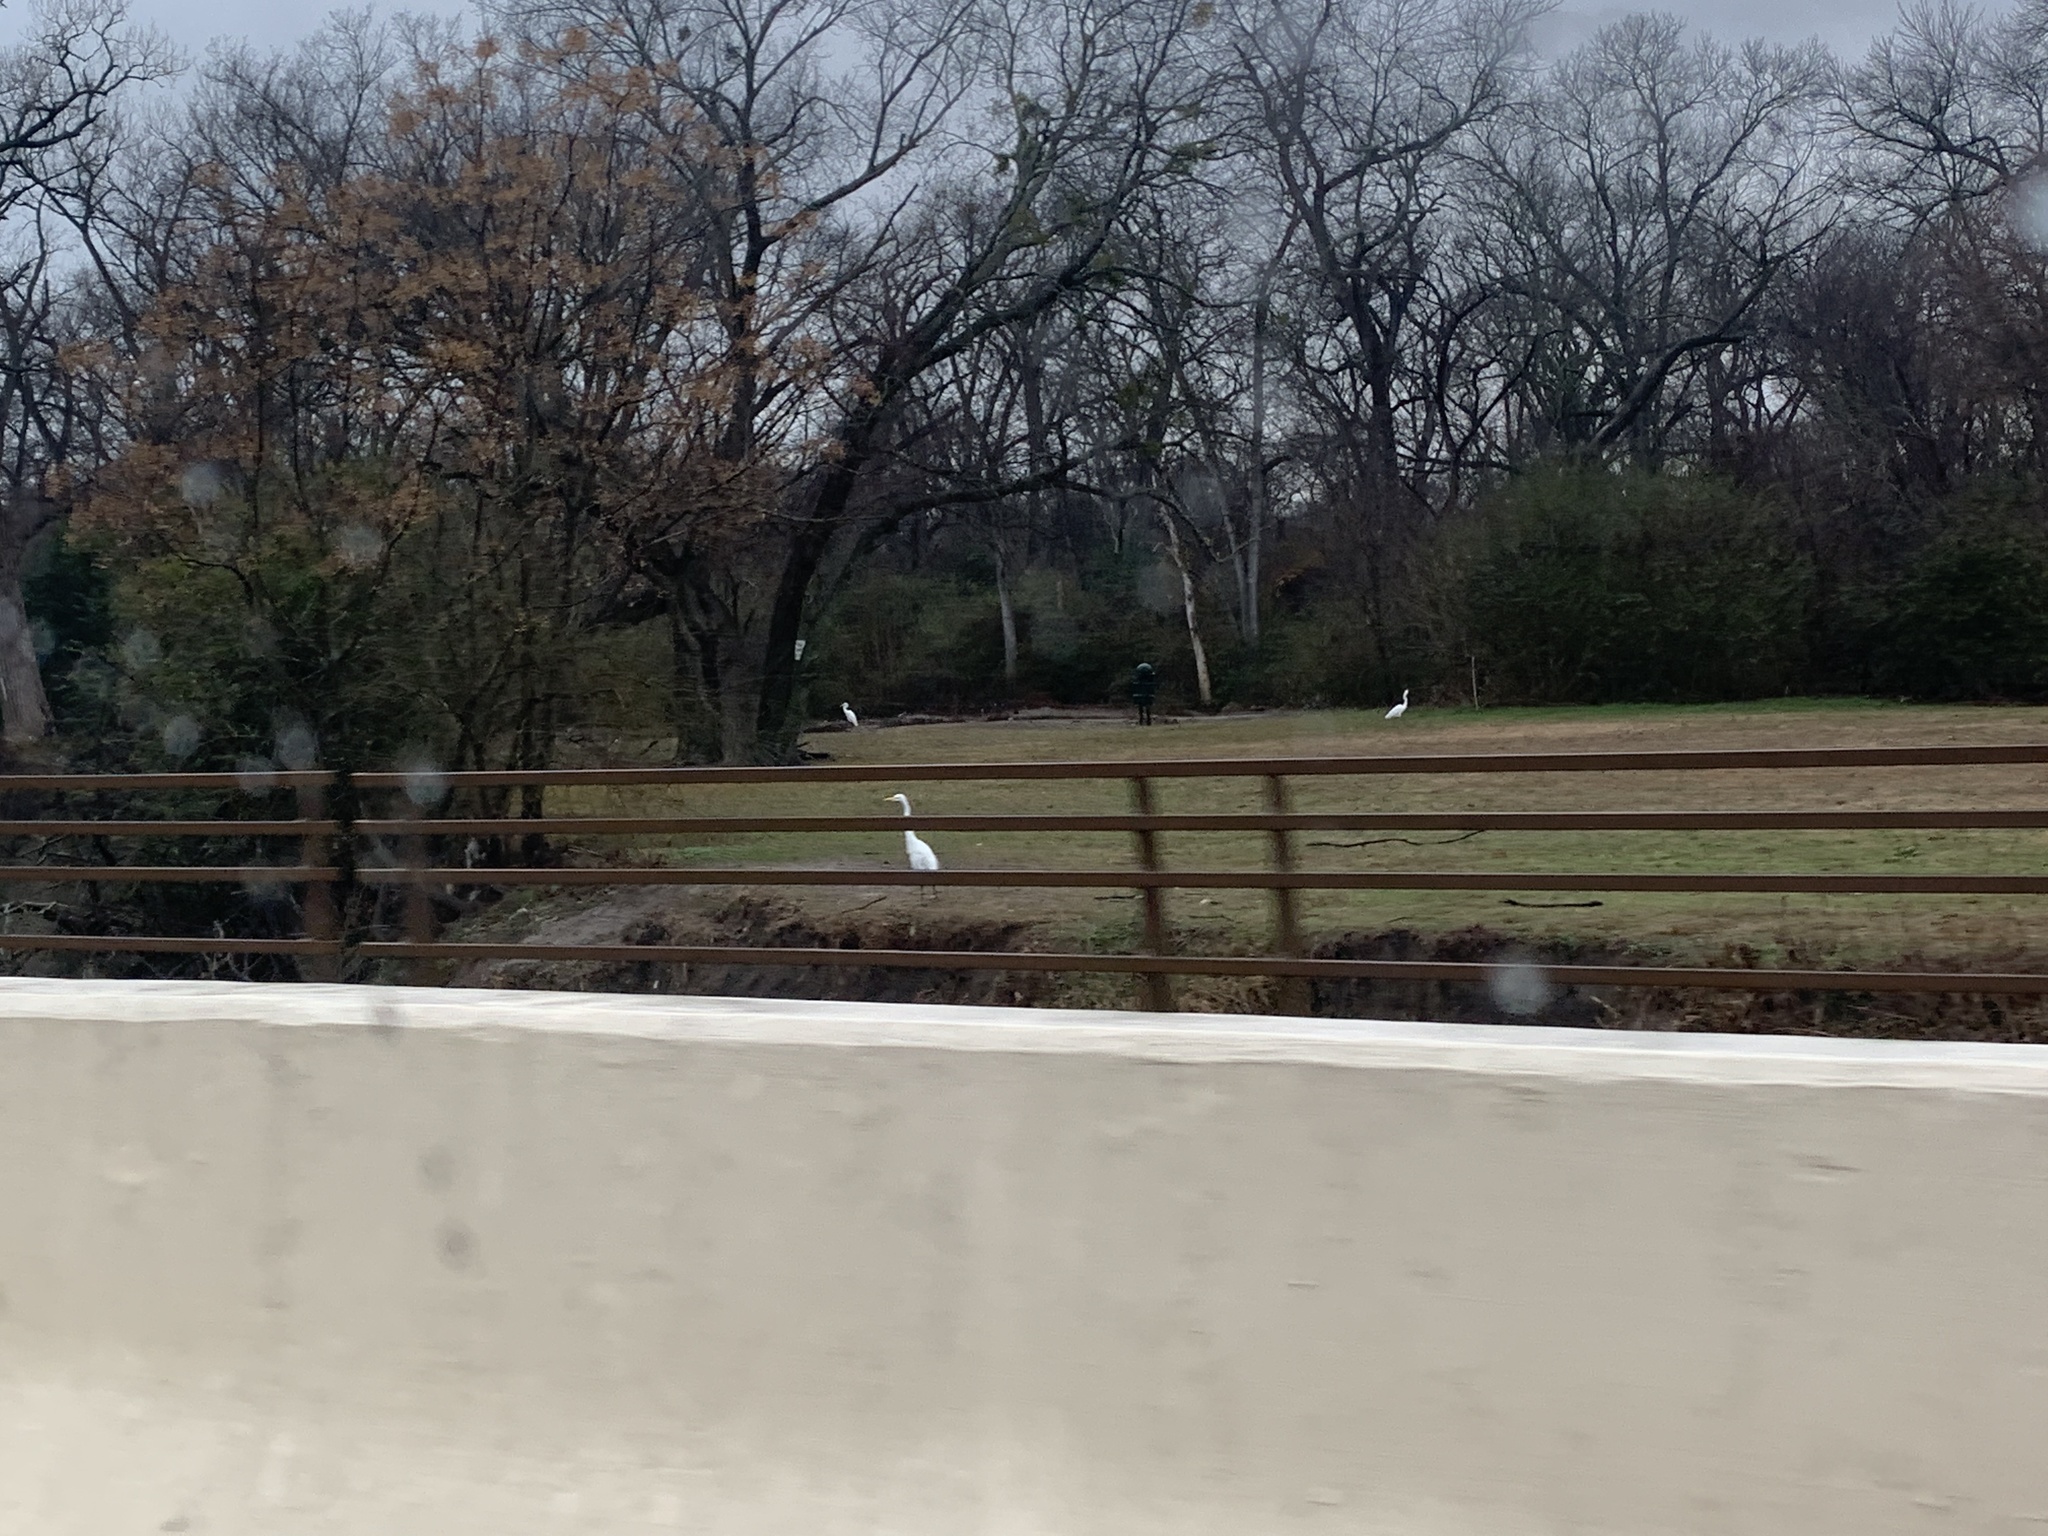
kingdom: Animalia
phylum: Chordata
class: Aves
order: Pelecaniformes
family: Ardeidae
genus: Ardea
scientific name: Ardea alba
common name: Great egret
